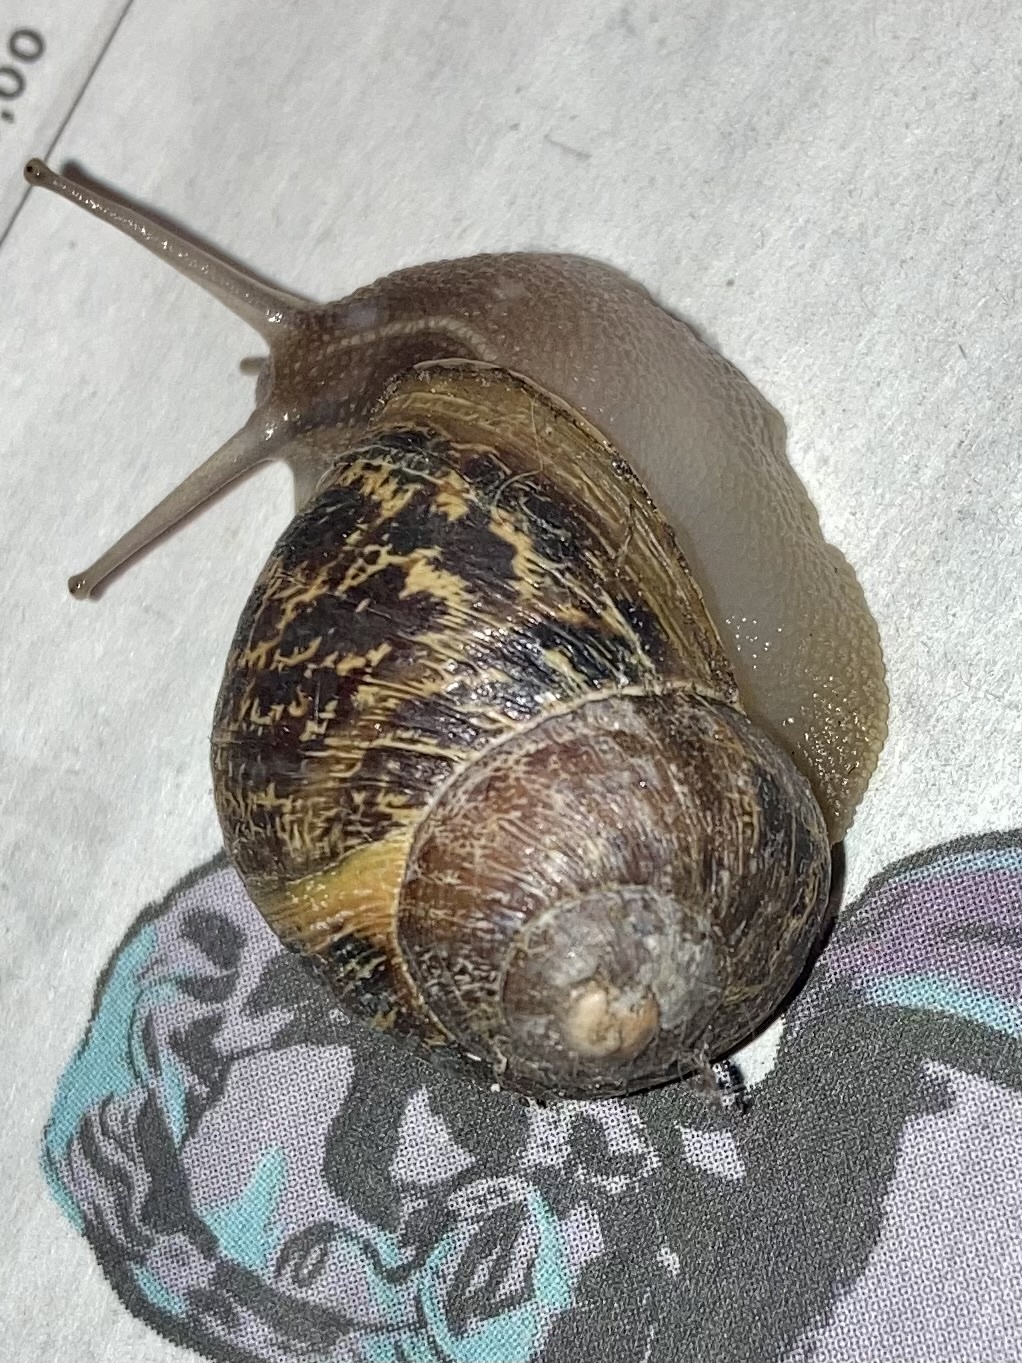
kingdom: Animalia
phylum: Mollusca
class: Gastropoda
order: Stylommatophora
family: Helicidae
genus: Cornu
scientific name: Cornu aspersum
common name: Brown garden snail
